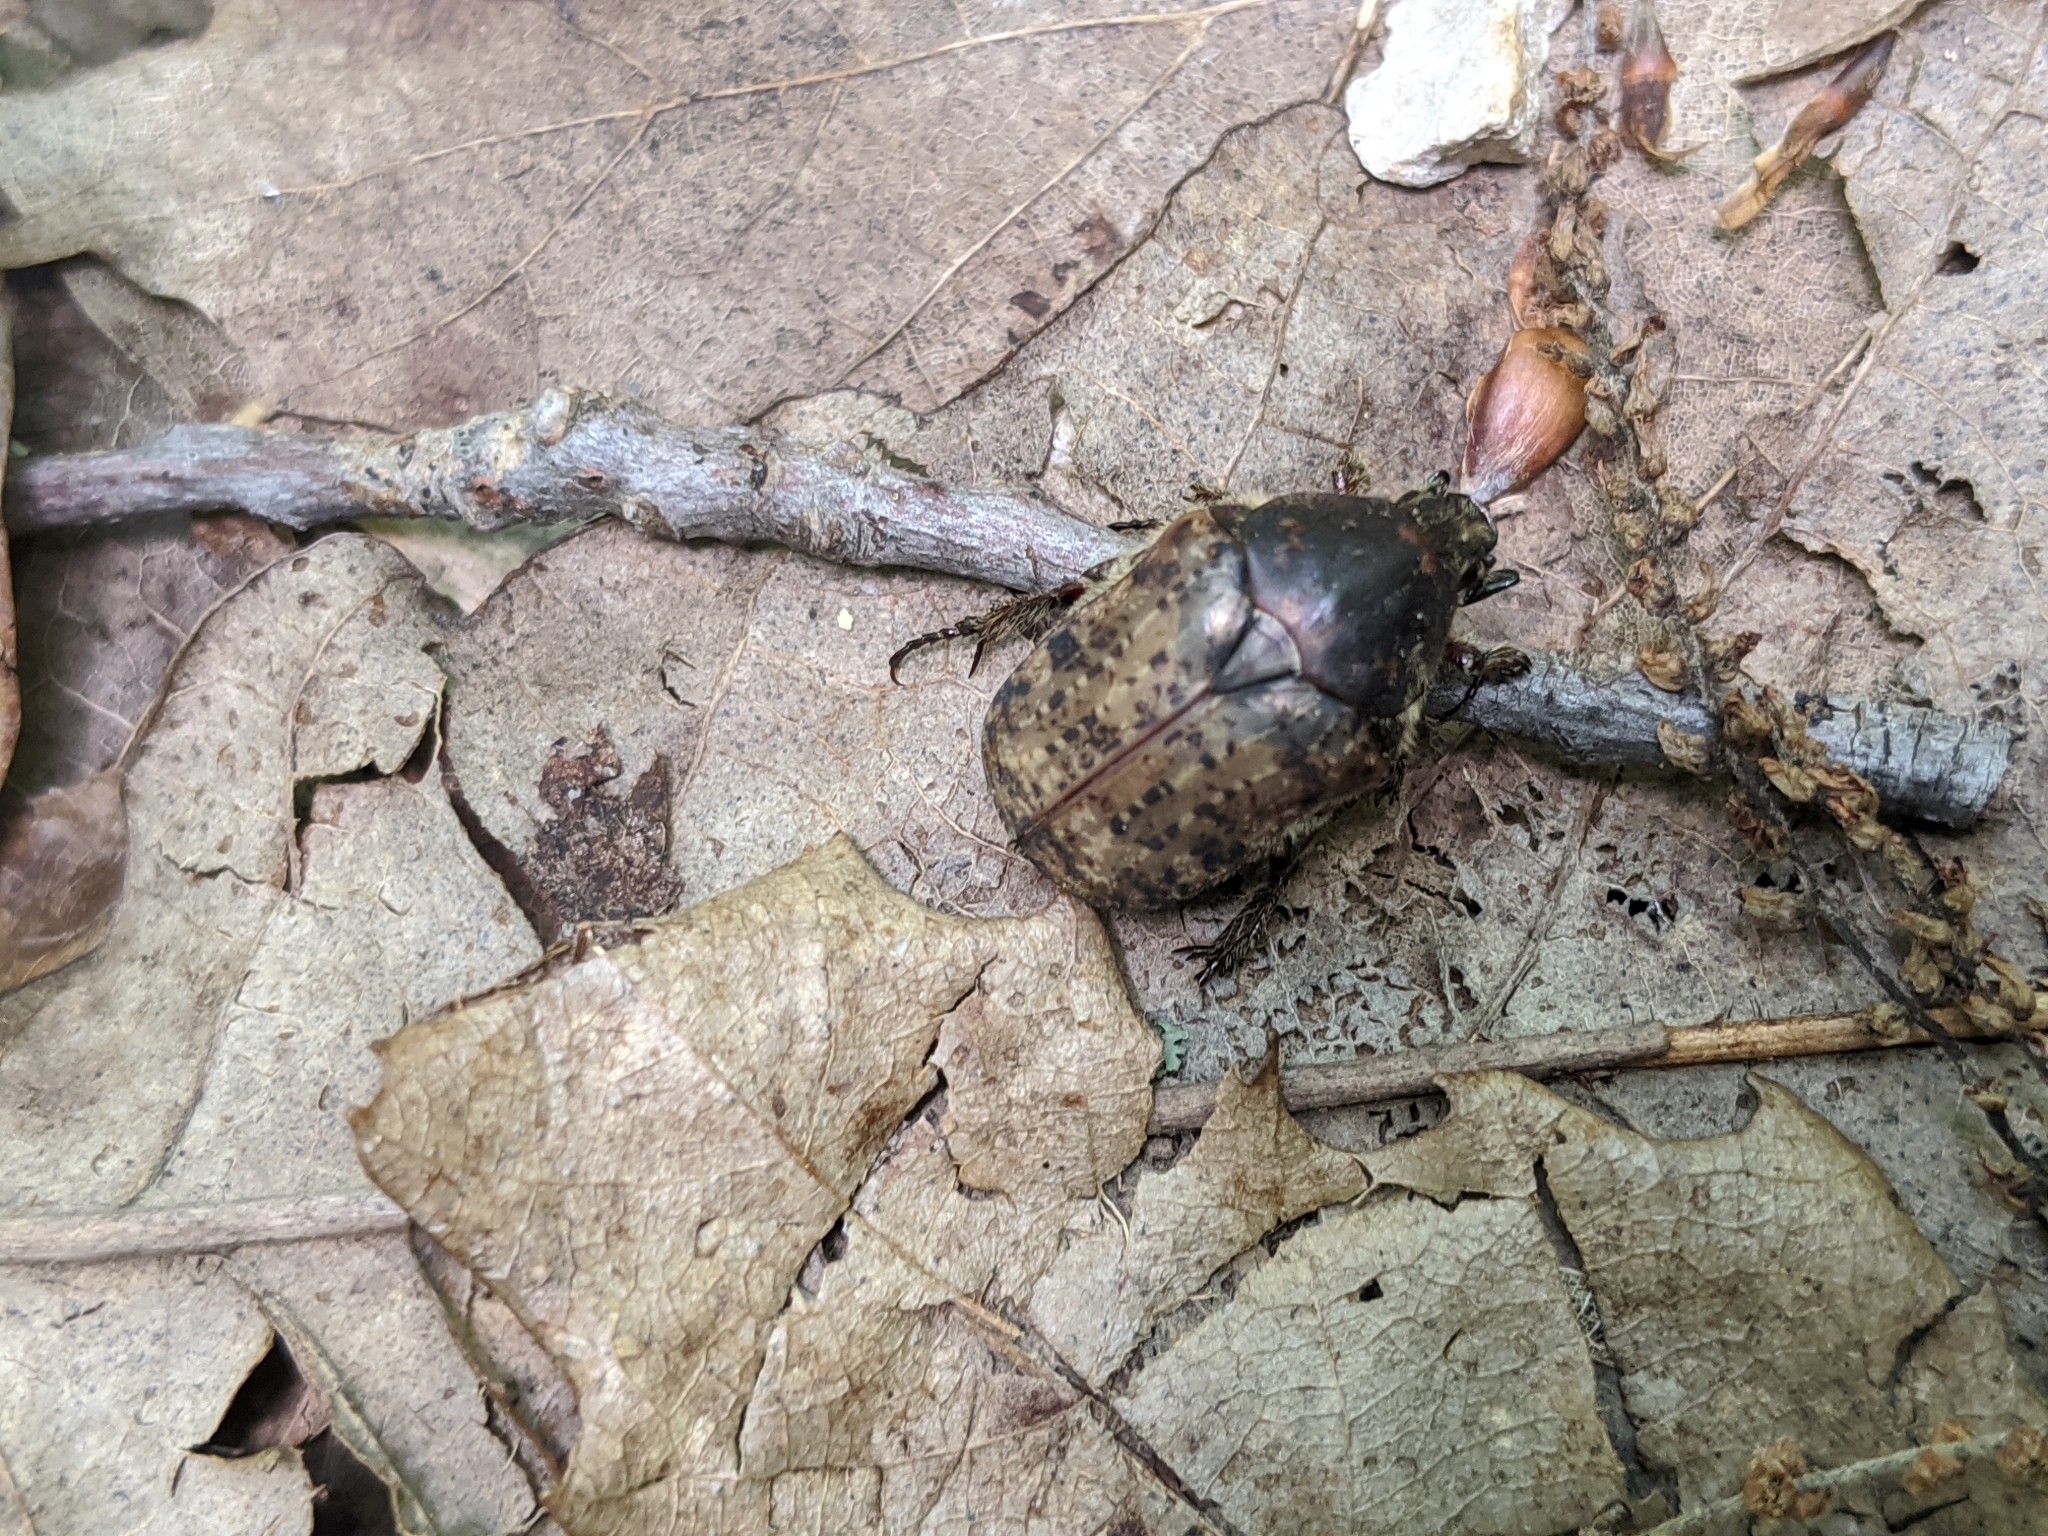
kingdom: Animalia
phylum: Arthropoda
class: Insecta
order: Coleoptera
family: Scarabaeidae
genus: Euphoria
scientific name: Euphoria inda
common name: Bumble flower beetle
